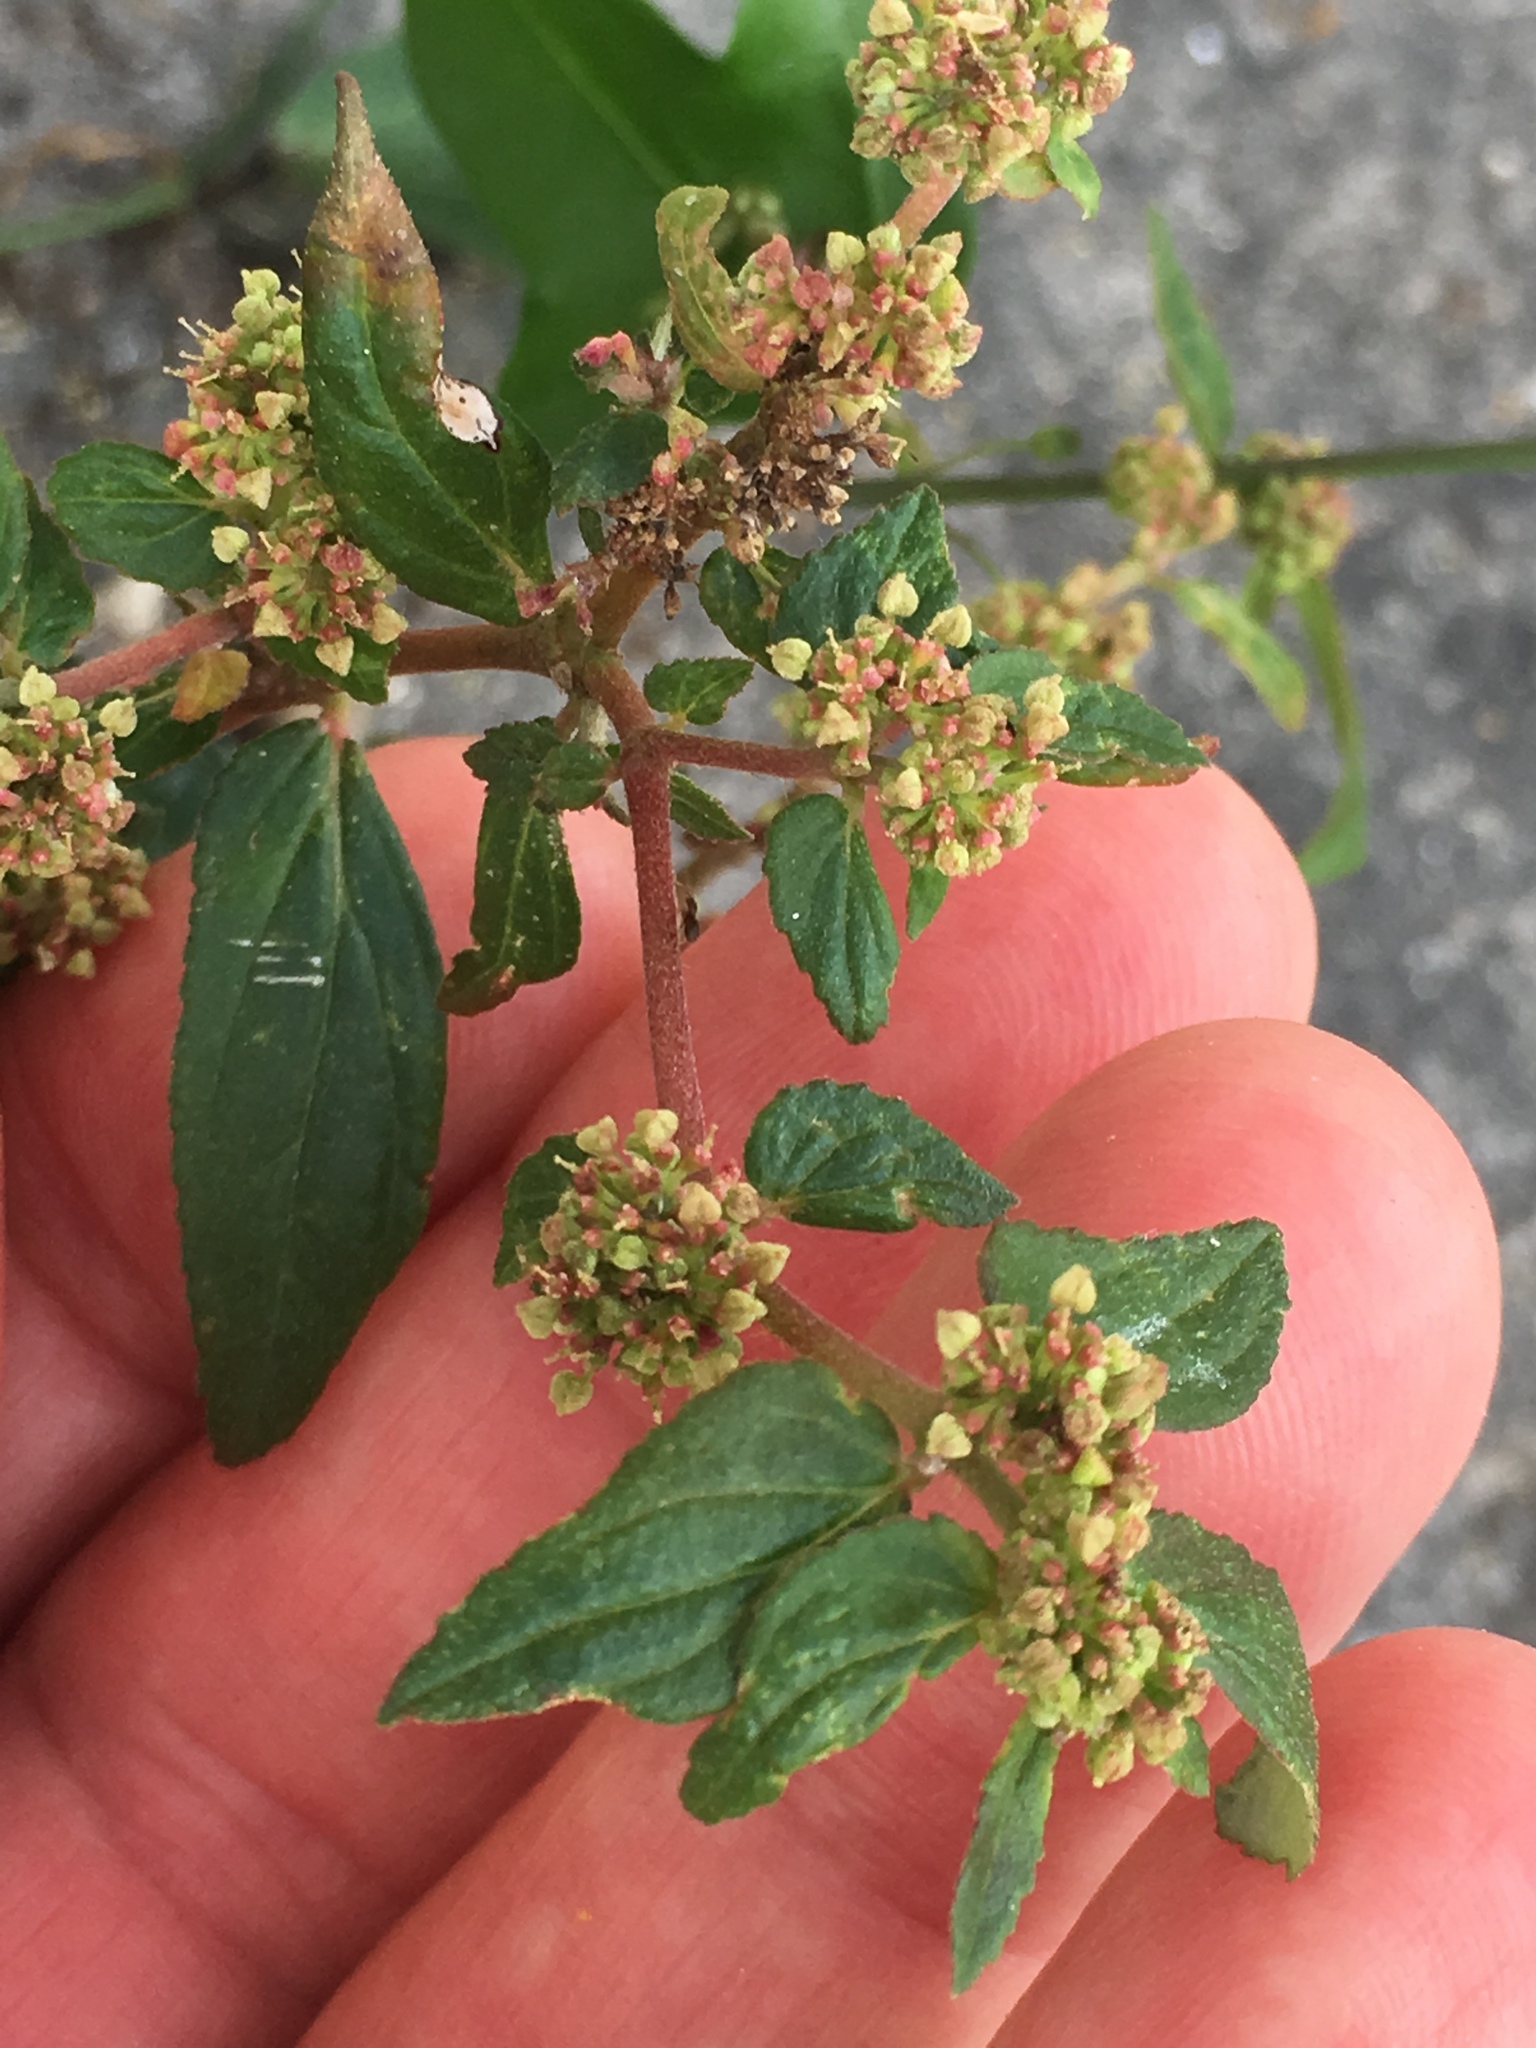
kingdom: Plantae
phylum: Tracheophyta
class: Magnoliopsida
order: Malpighiales
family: Euphorbiaceae
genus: Euphorbia
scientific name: Euphorbia hirta
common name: Pillpod sandmat
